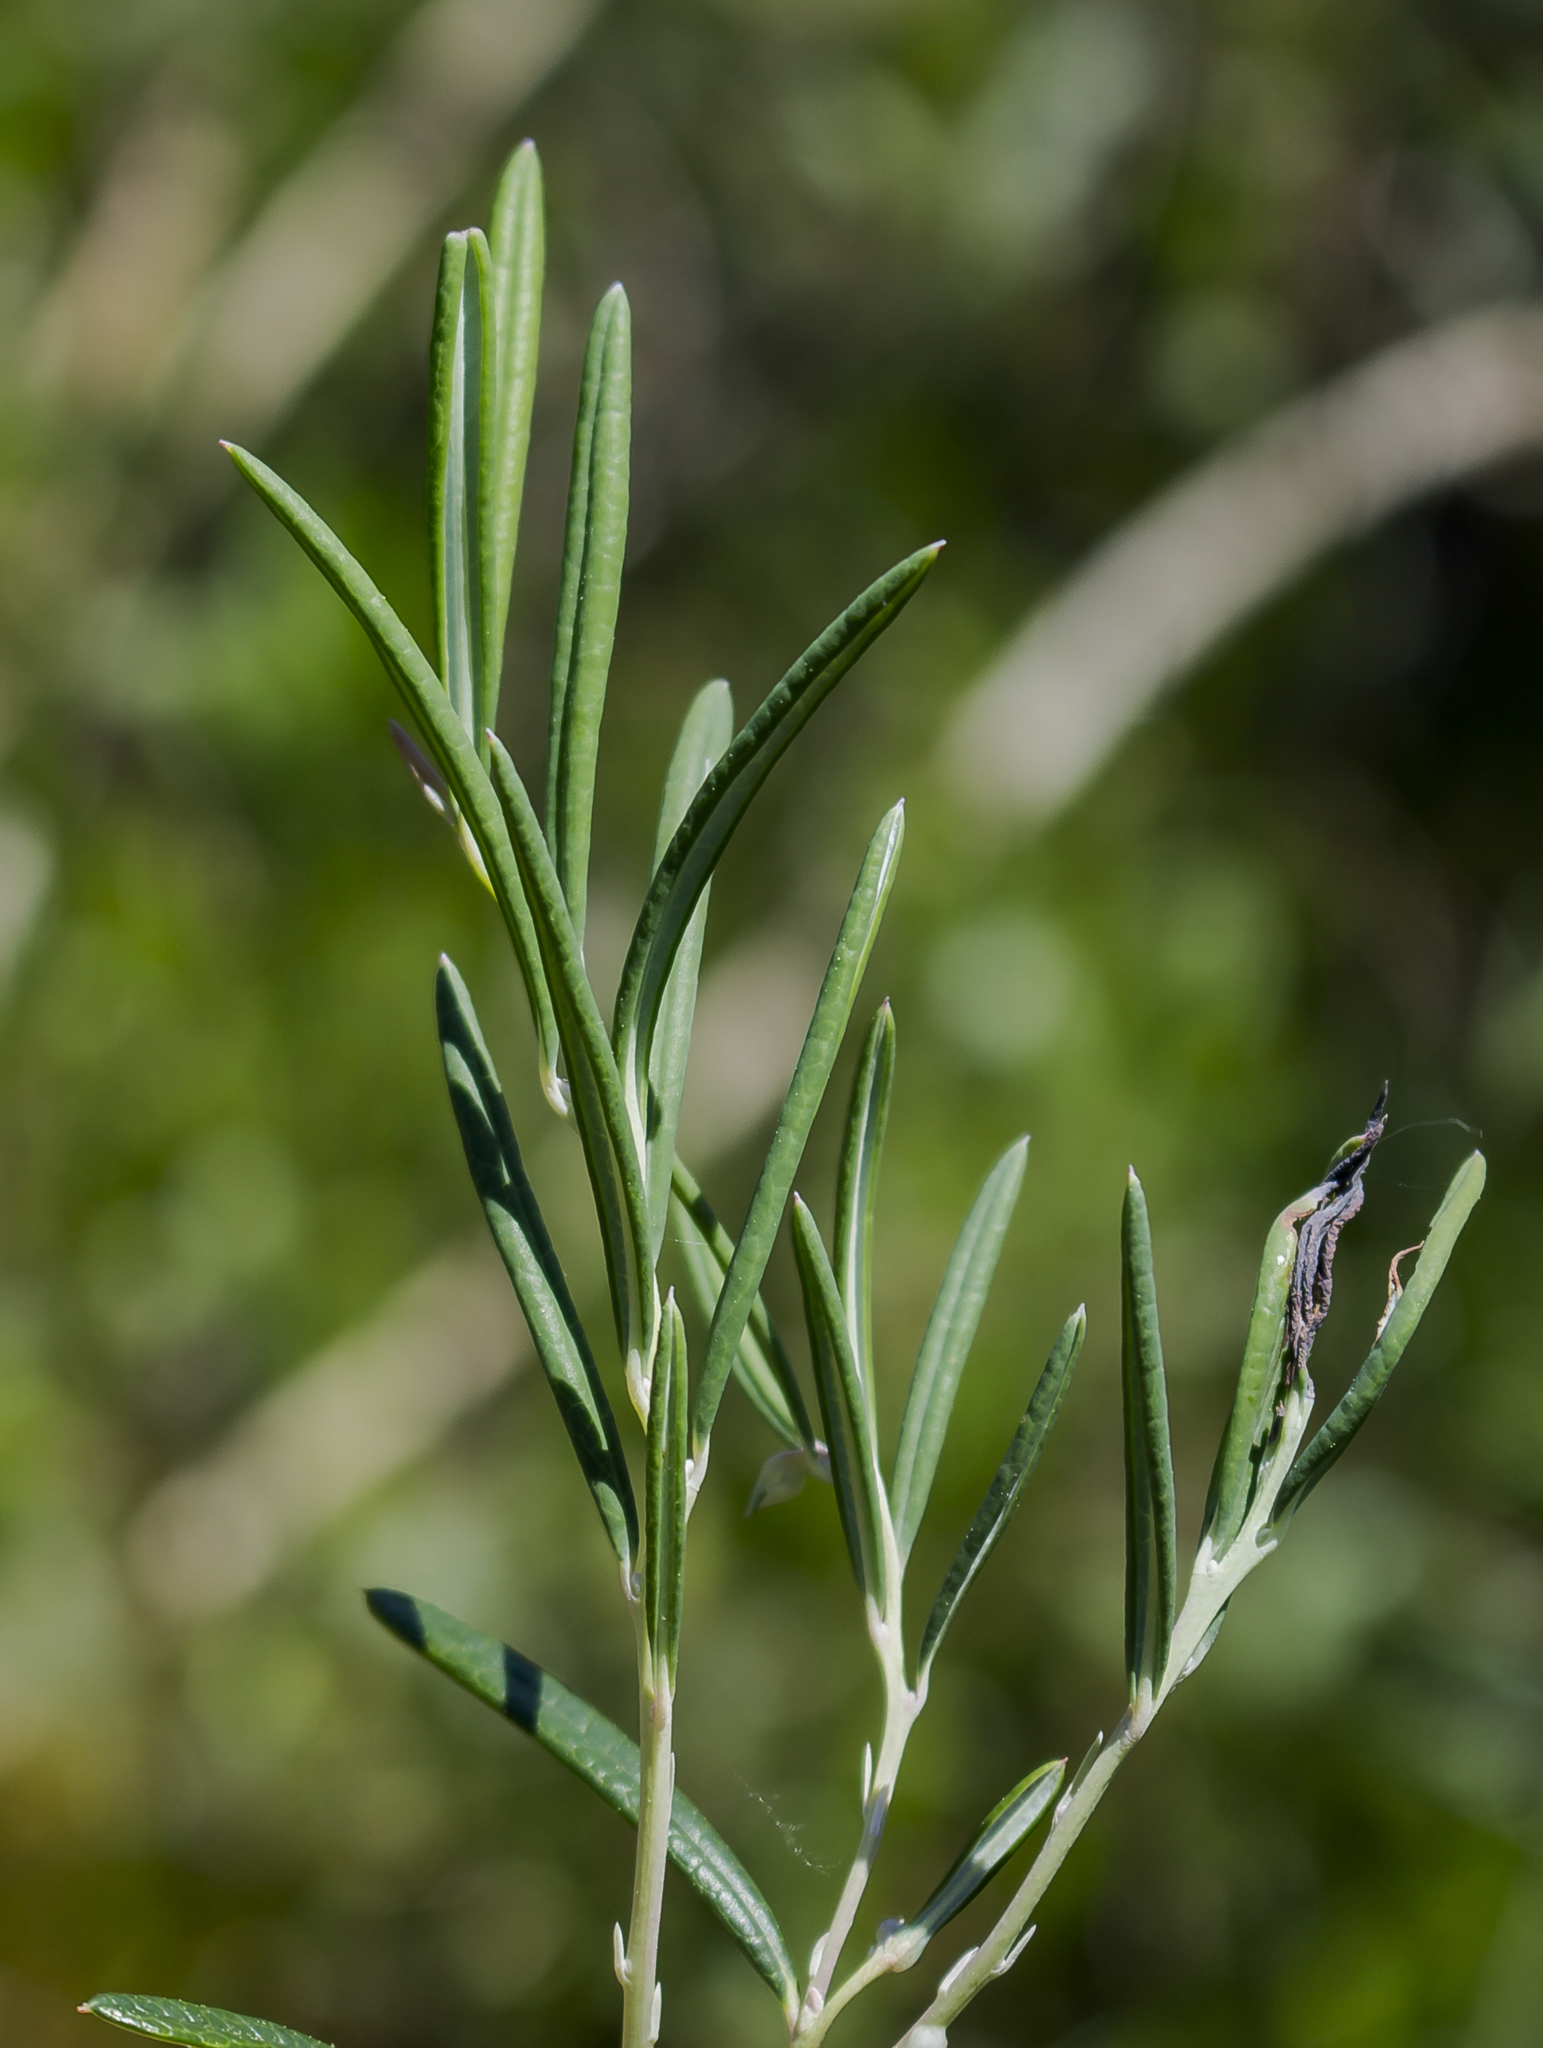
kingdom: Plantae
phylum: Tracheophyta
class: Magnoliopsida
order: Ericales
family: Ericaceae
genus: Andromeda
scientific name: Andromeda polifolia
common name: Bog-rosemary
